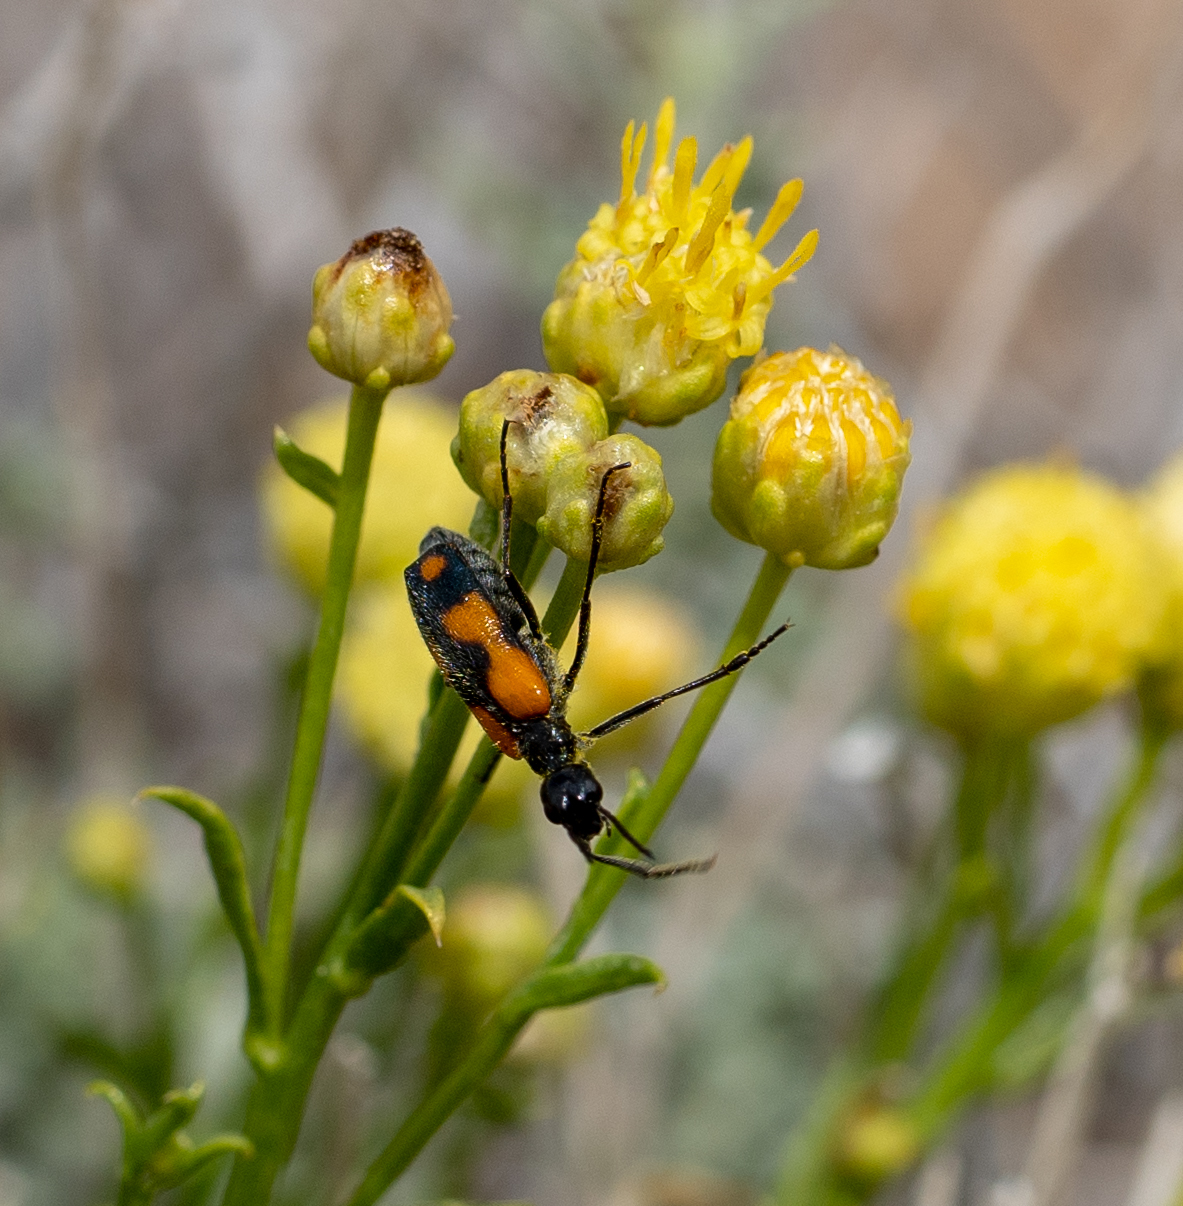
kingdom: Animalia
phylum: Arthropoda
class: Insecta
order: Coleoptera
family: Meloidae
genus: Eupompha
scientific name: Eupompha elegans
